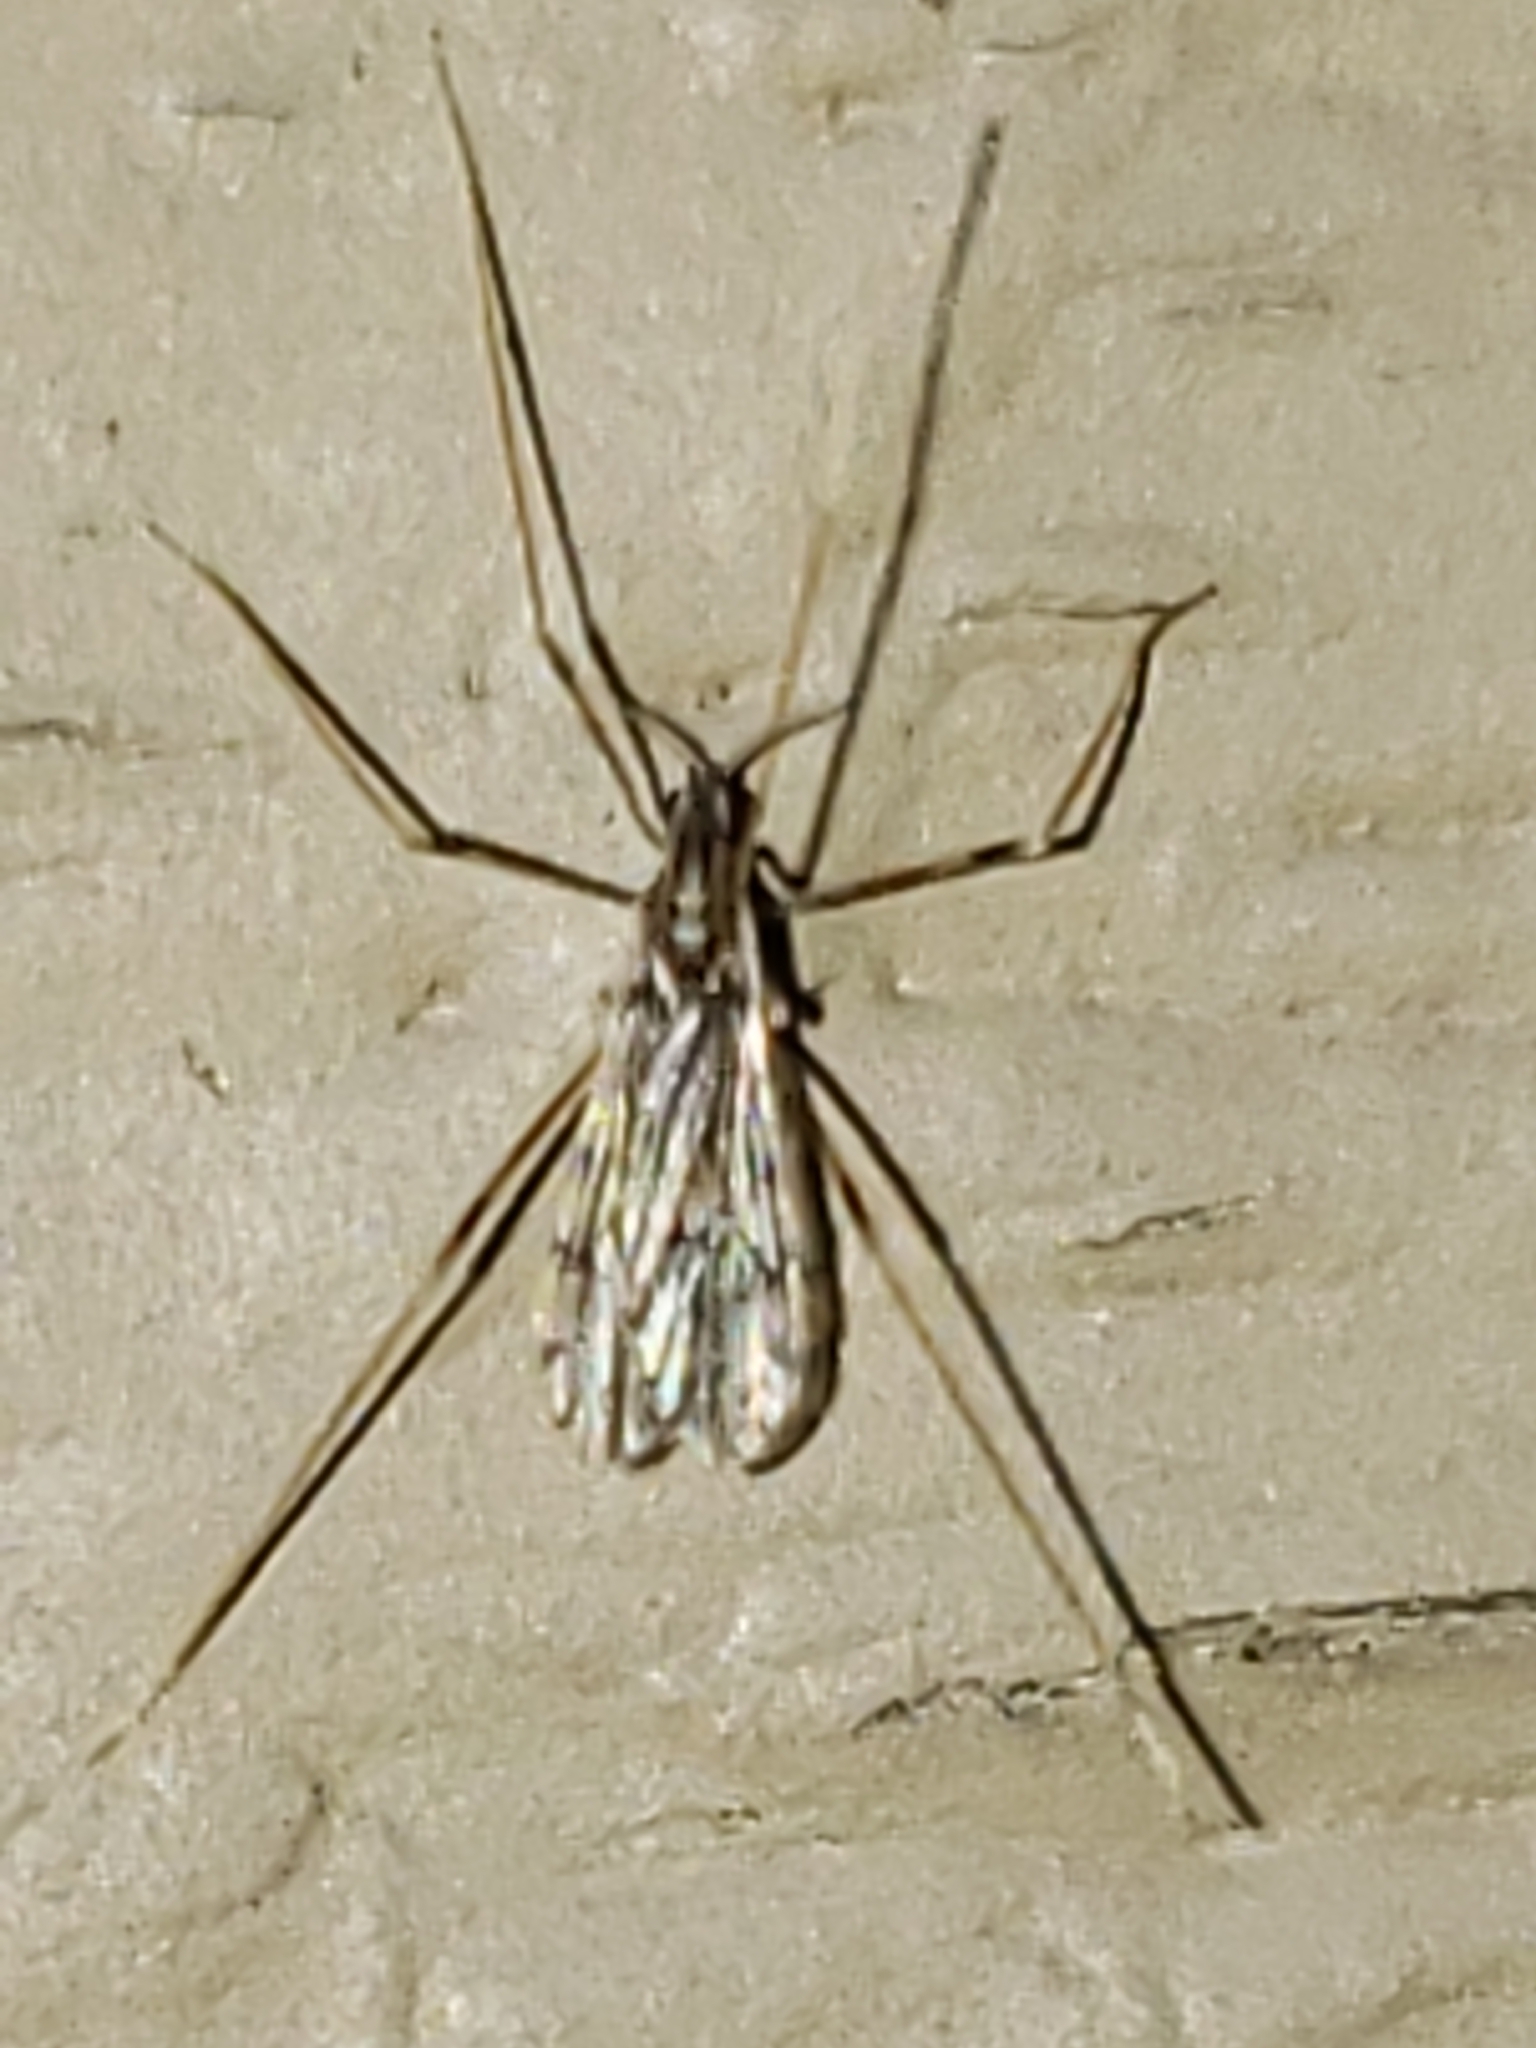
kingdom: Animalia
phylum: Arthropoda
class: Insecta
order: Diptera
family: Limoniidae
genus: Erioptera
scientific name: Erioptera parva
